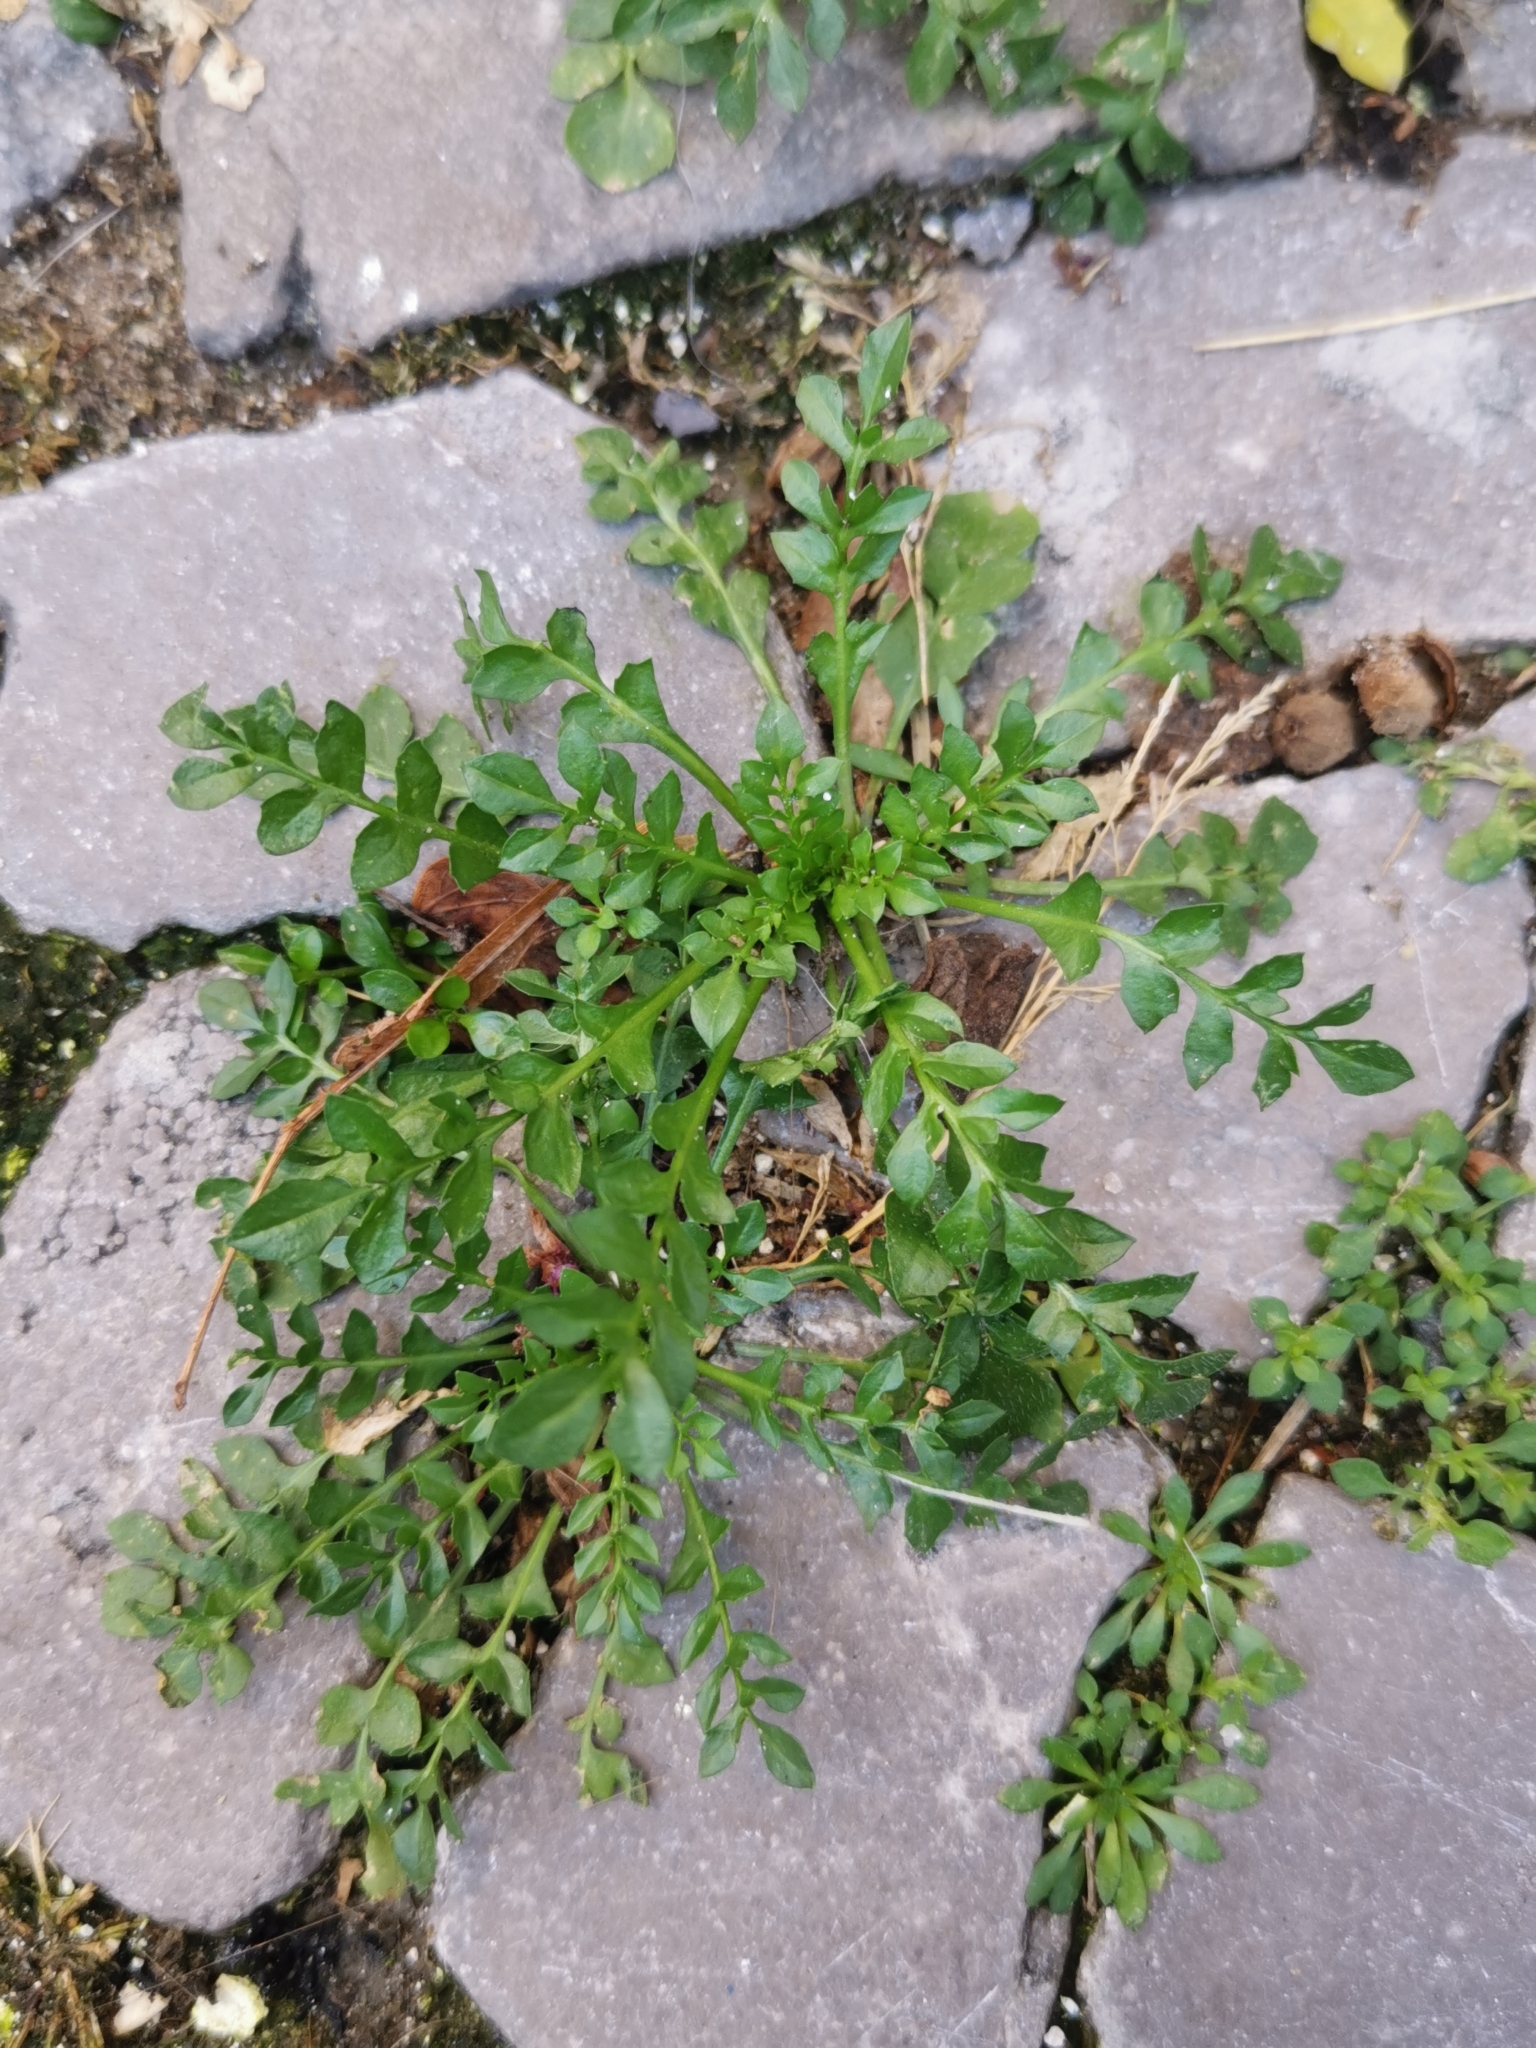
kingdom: Plantae
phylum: Tracheophyta
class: Magnoliopsida
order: Brassicales
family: Brassicaceae
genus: Capsella
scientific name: Capsella bursa-pastoris
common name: Shepherd's purse
